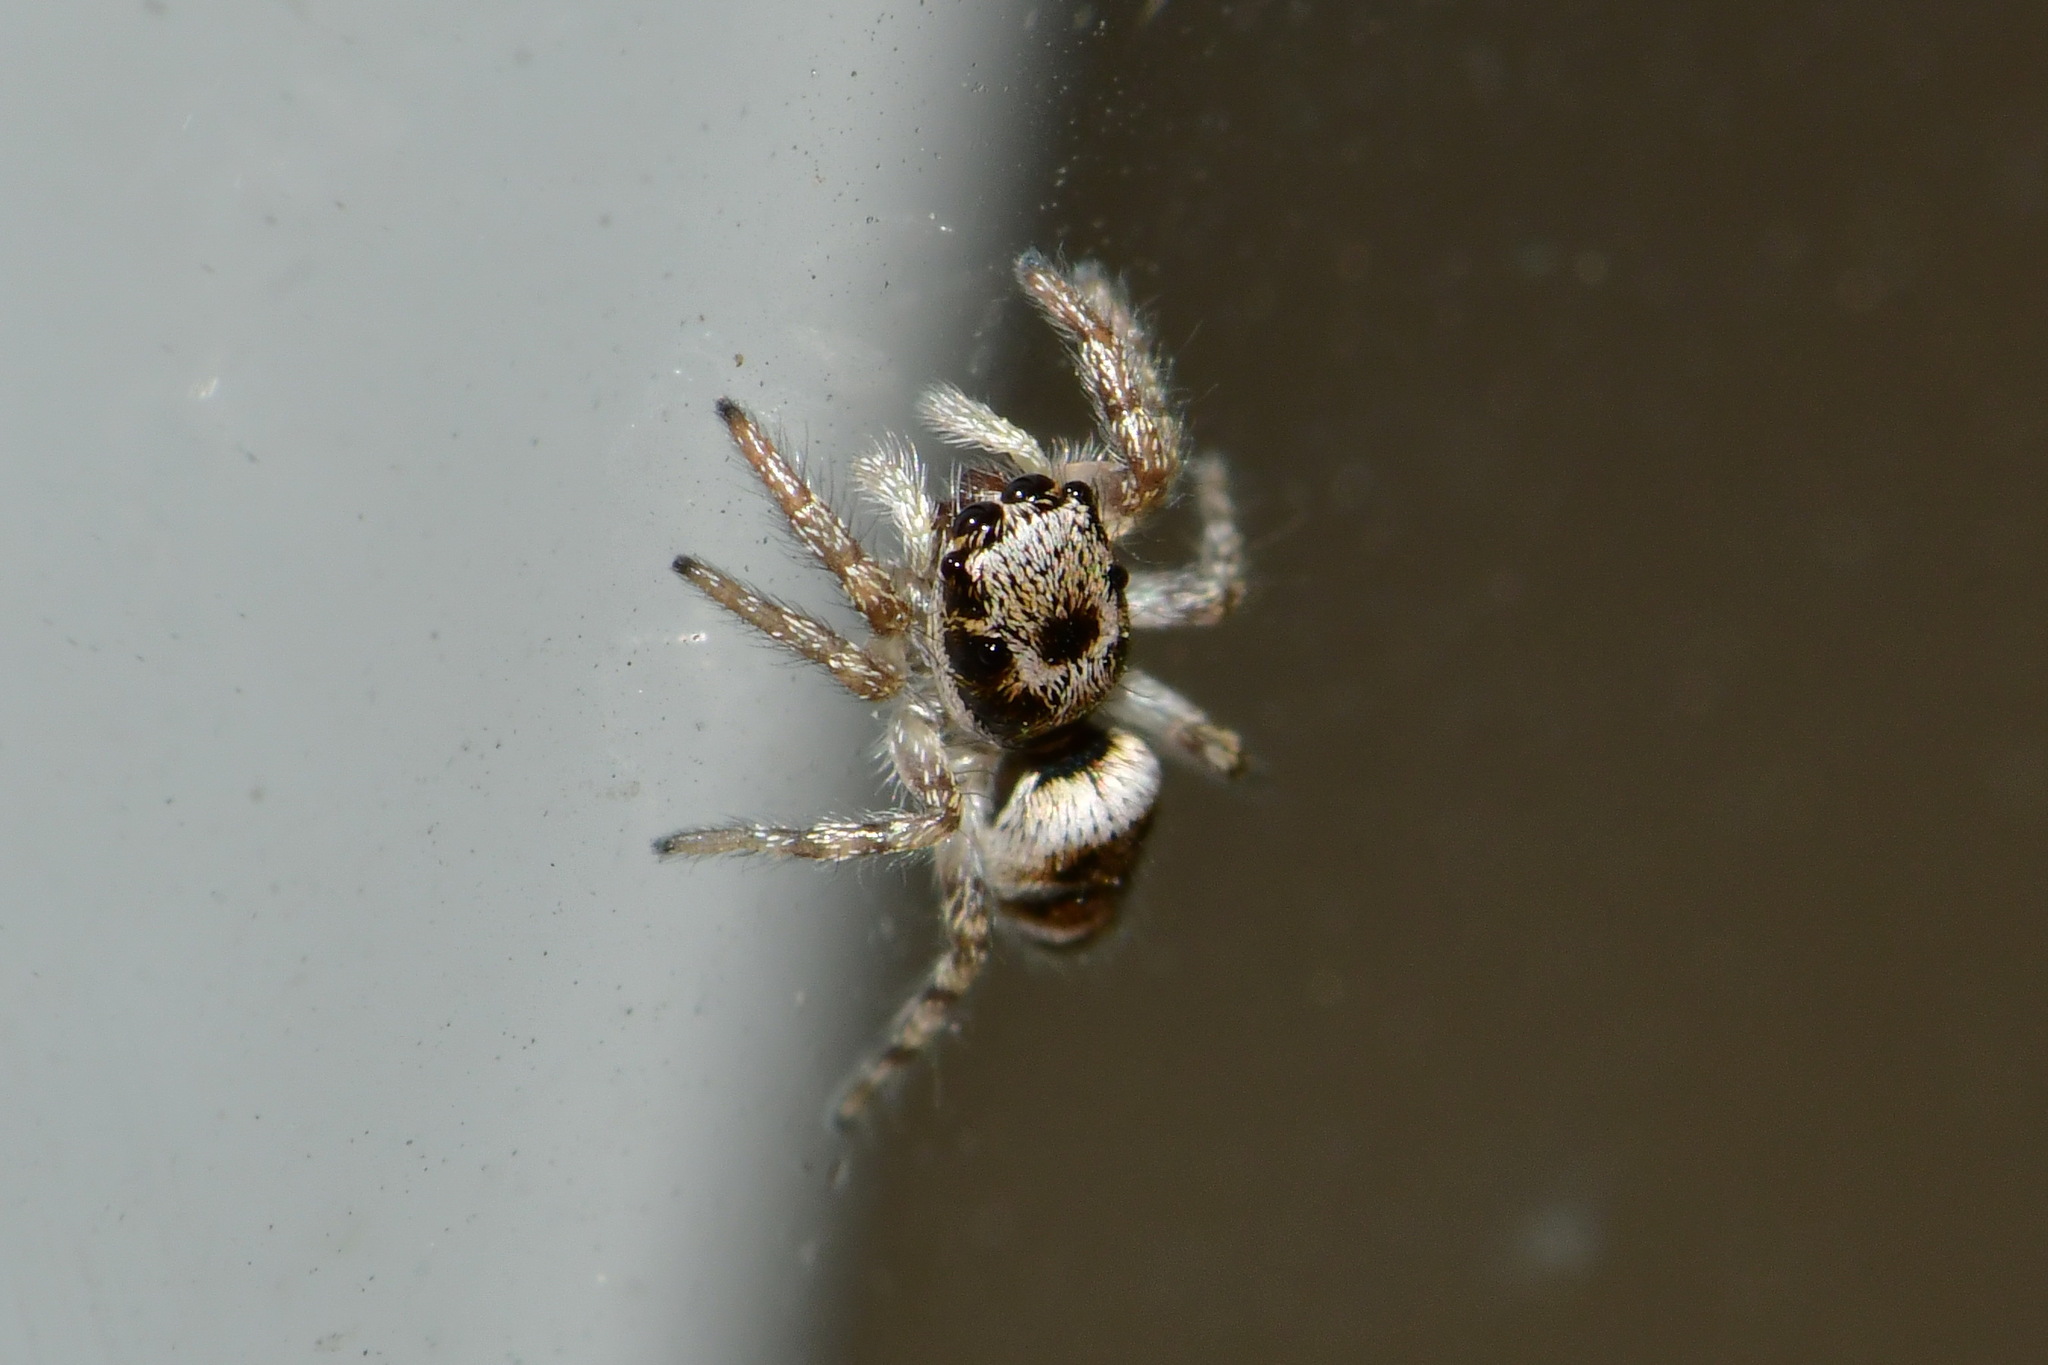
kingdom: Animalia
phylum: Arthropoda
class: Arachnida
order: Araneae
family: Salticidae
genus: Salticus
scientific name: Salticus scenicus
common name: Zebra jumper
